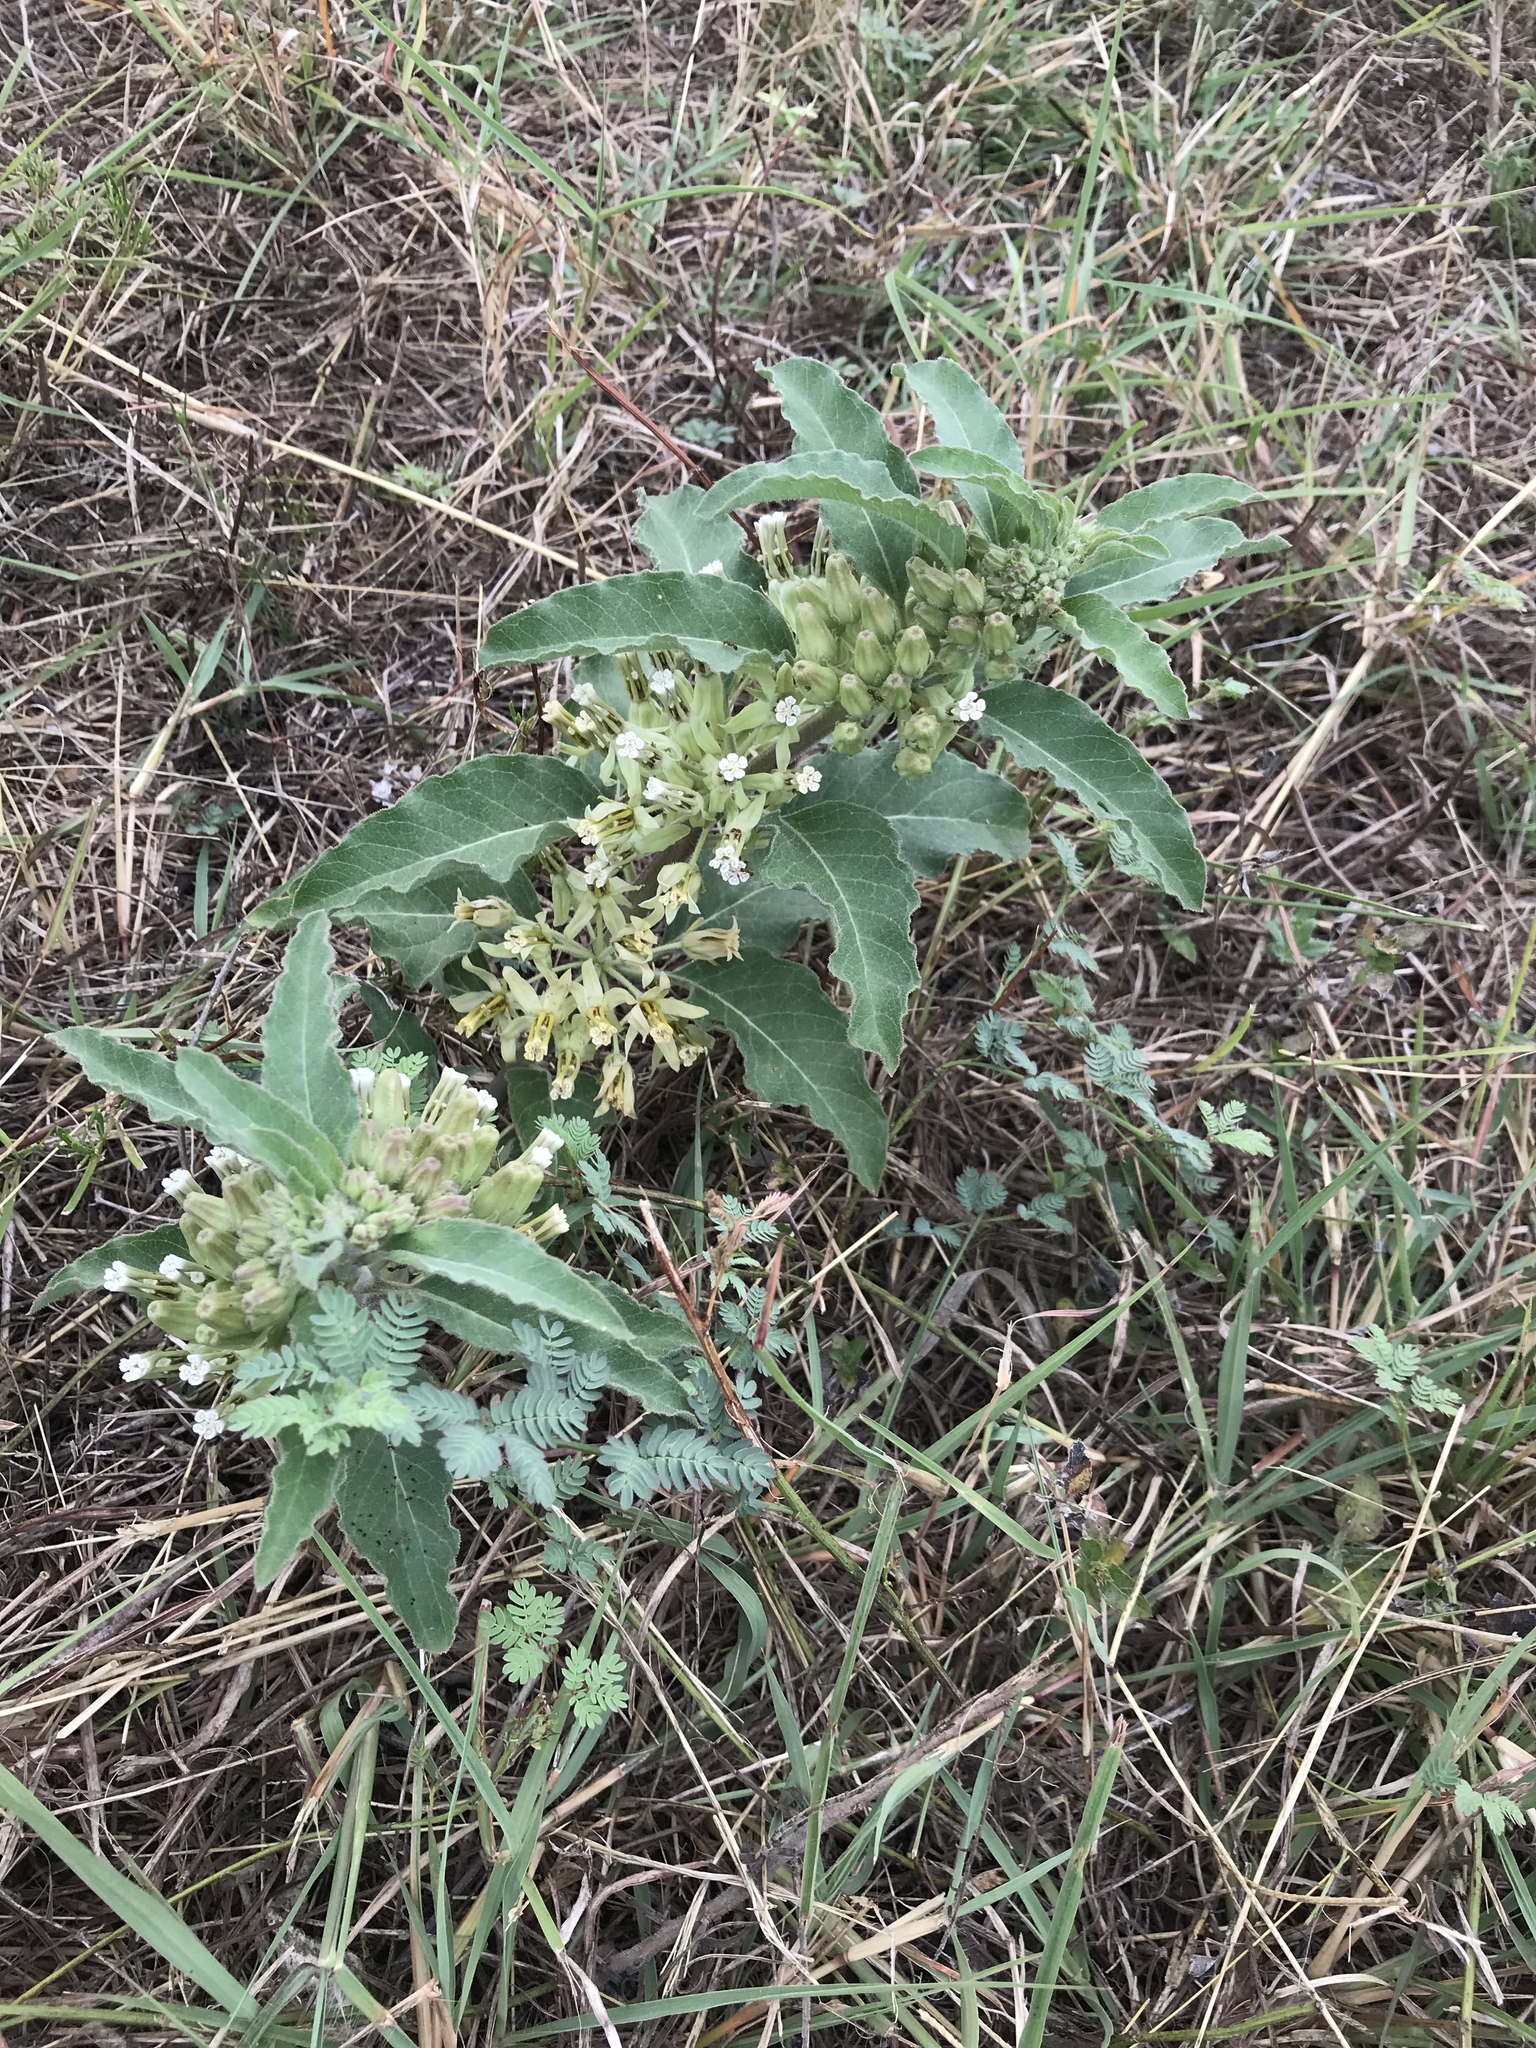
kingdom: Plantae
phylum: Tracheophyta
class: Magnoliopsida
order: Gentianales
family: Apocynaceae
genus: Asclepias
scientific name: Asclepias oenotheroides
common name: Zizotes milkweed
